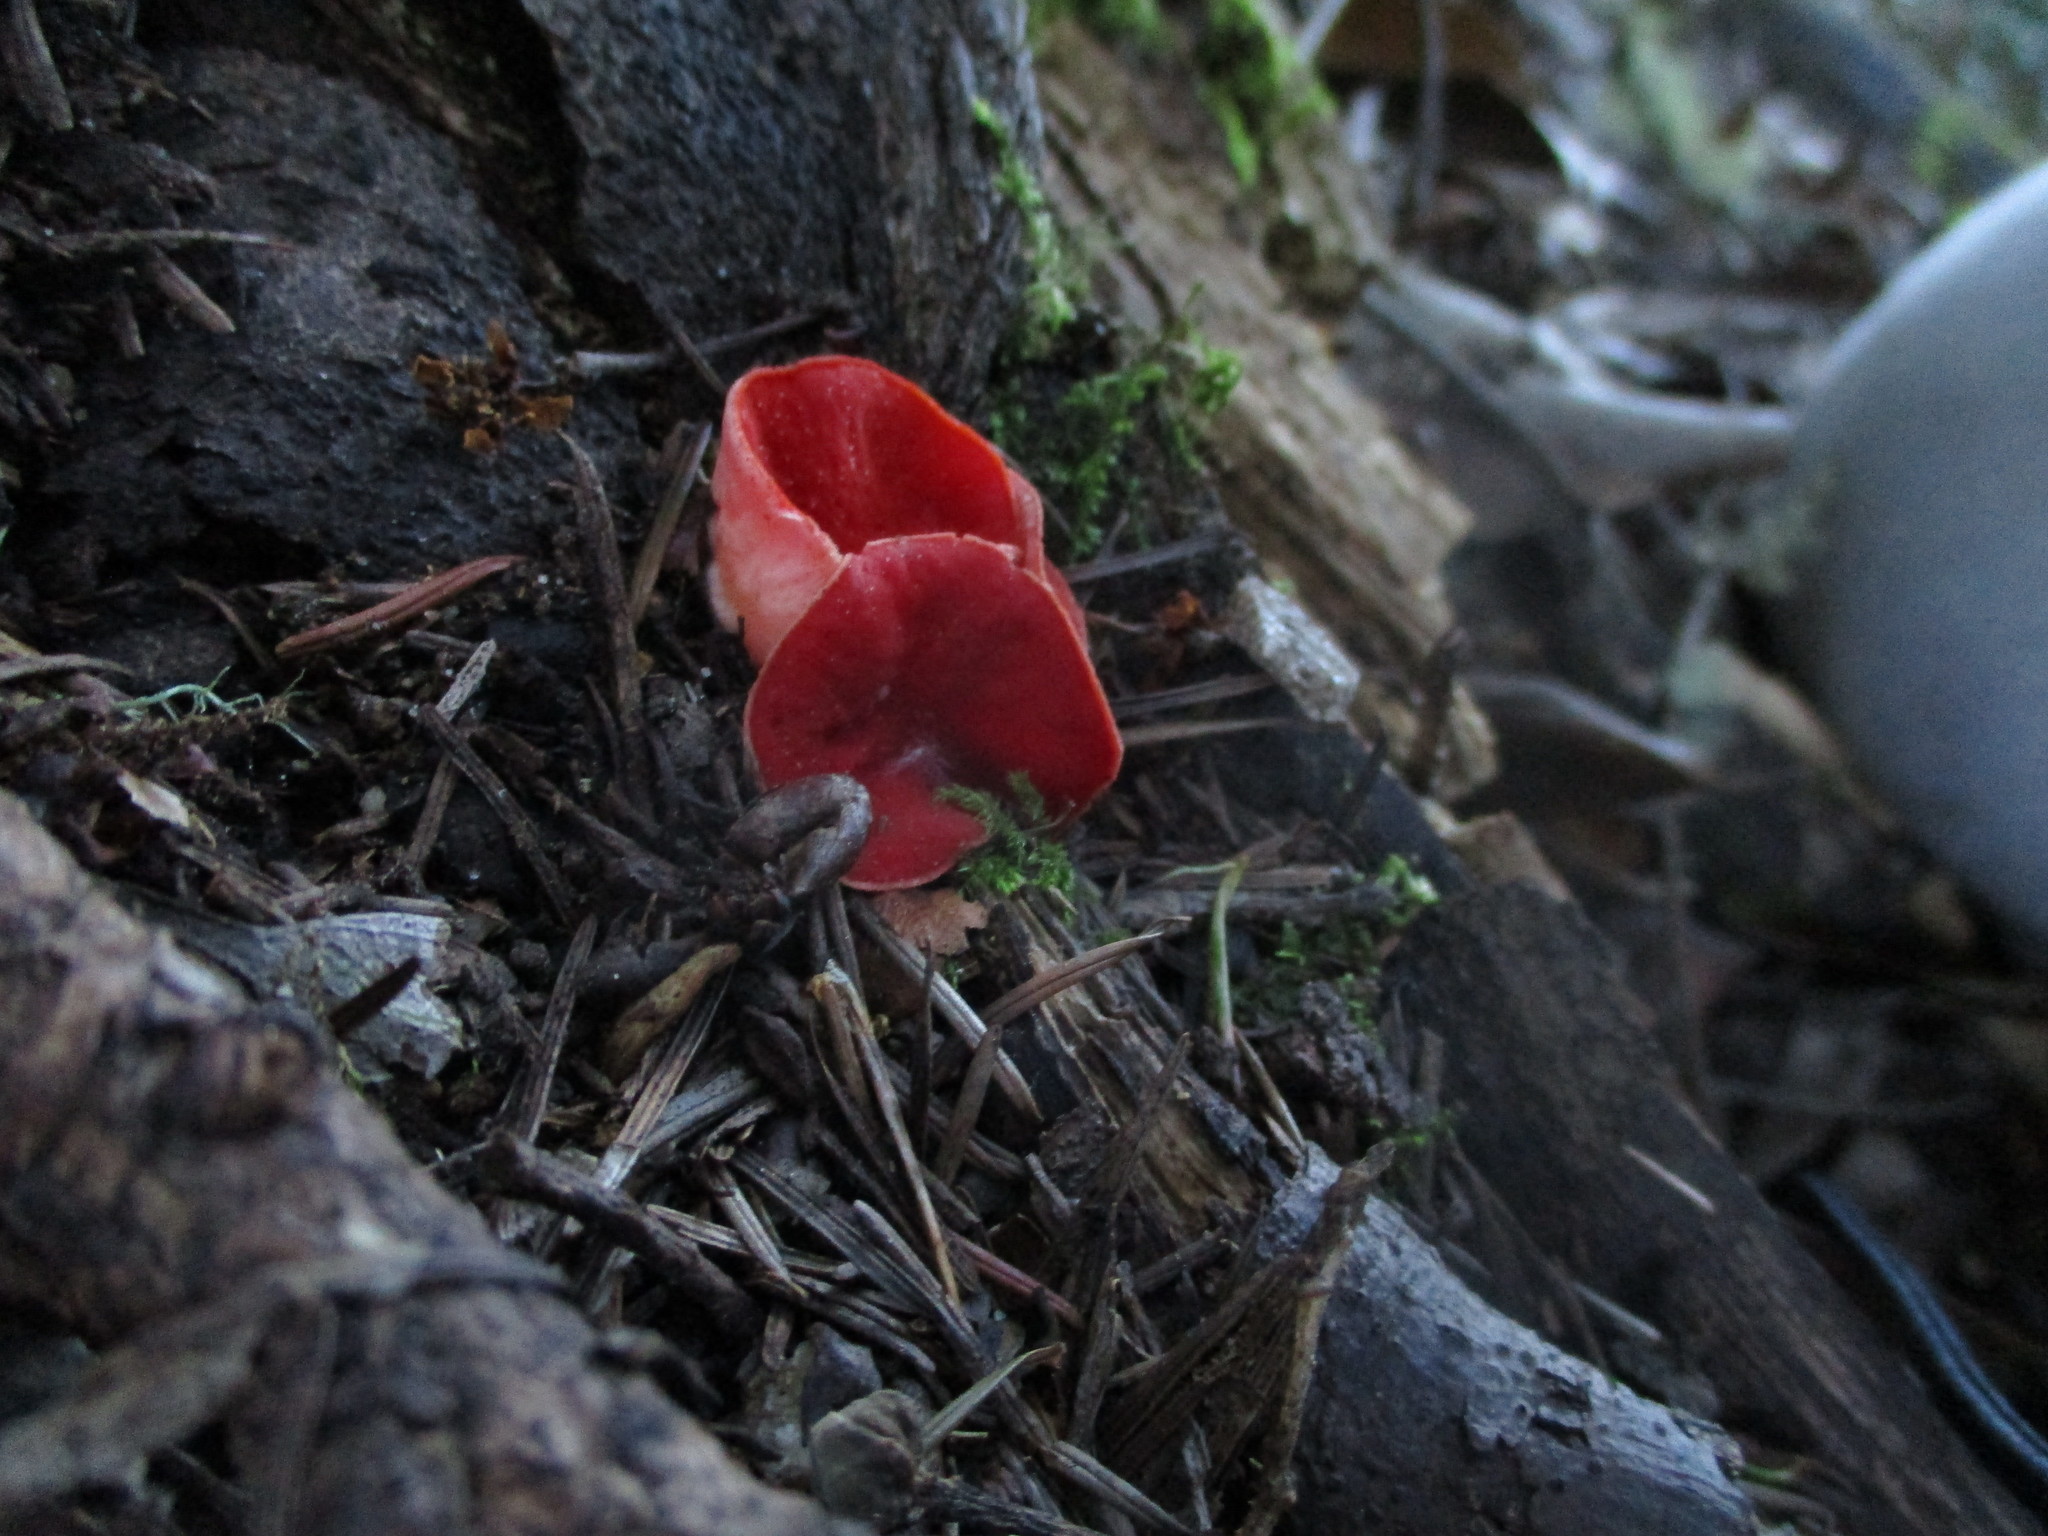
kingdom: Fungi
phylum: Ascomycota
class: Pezizomycetes
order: Pezizales
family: Sarcoscyphaceae
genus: Sarcoscypha
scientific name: Sarcoscypha coccinea
